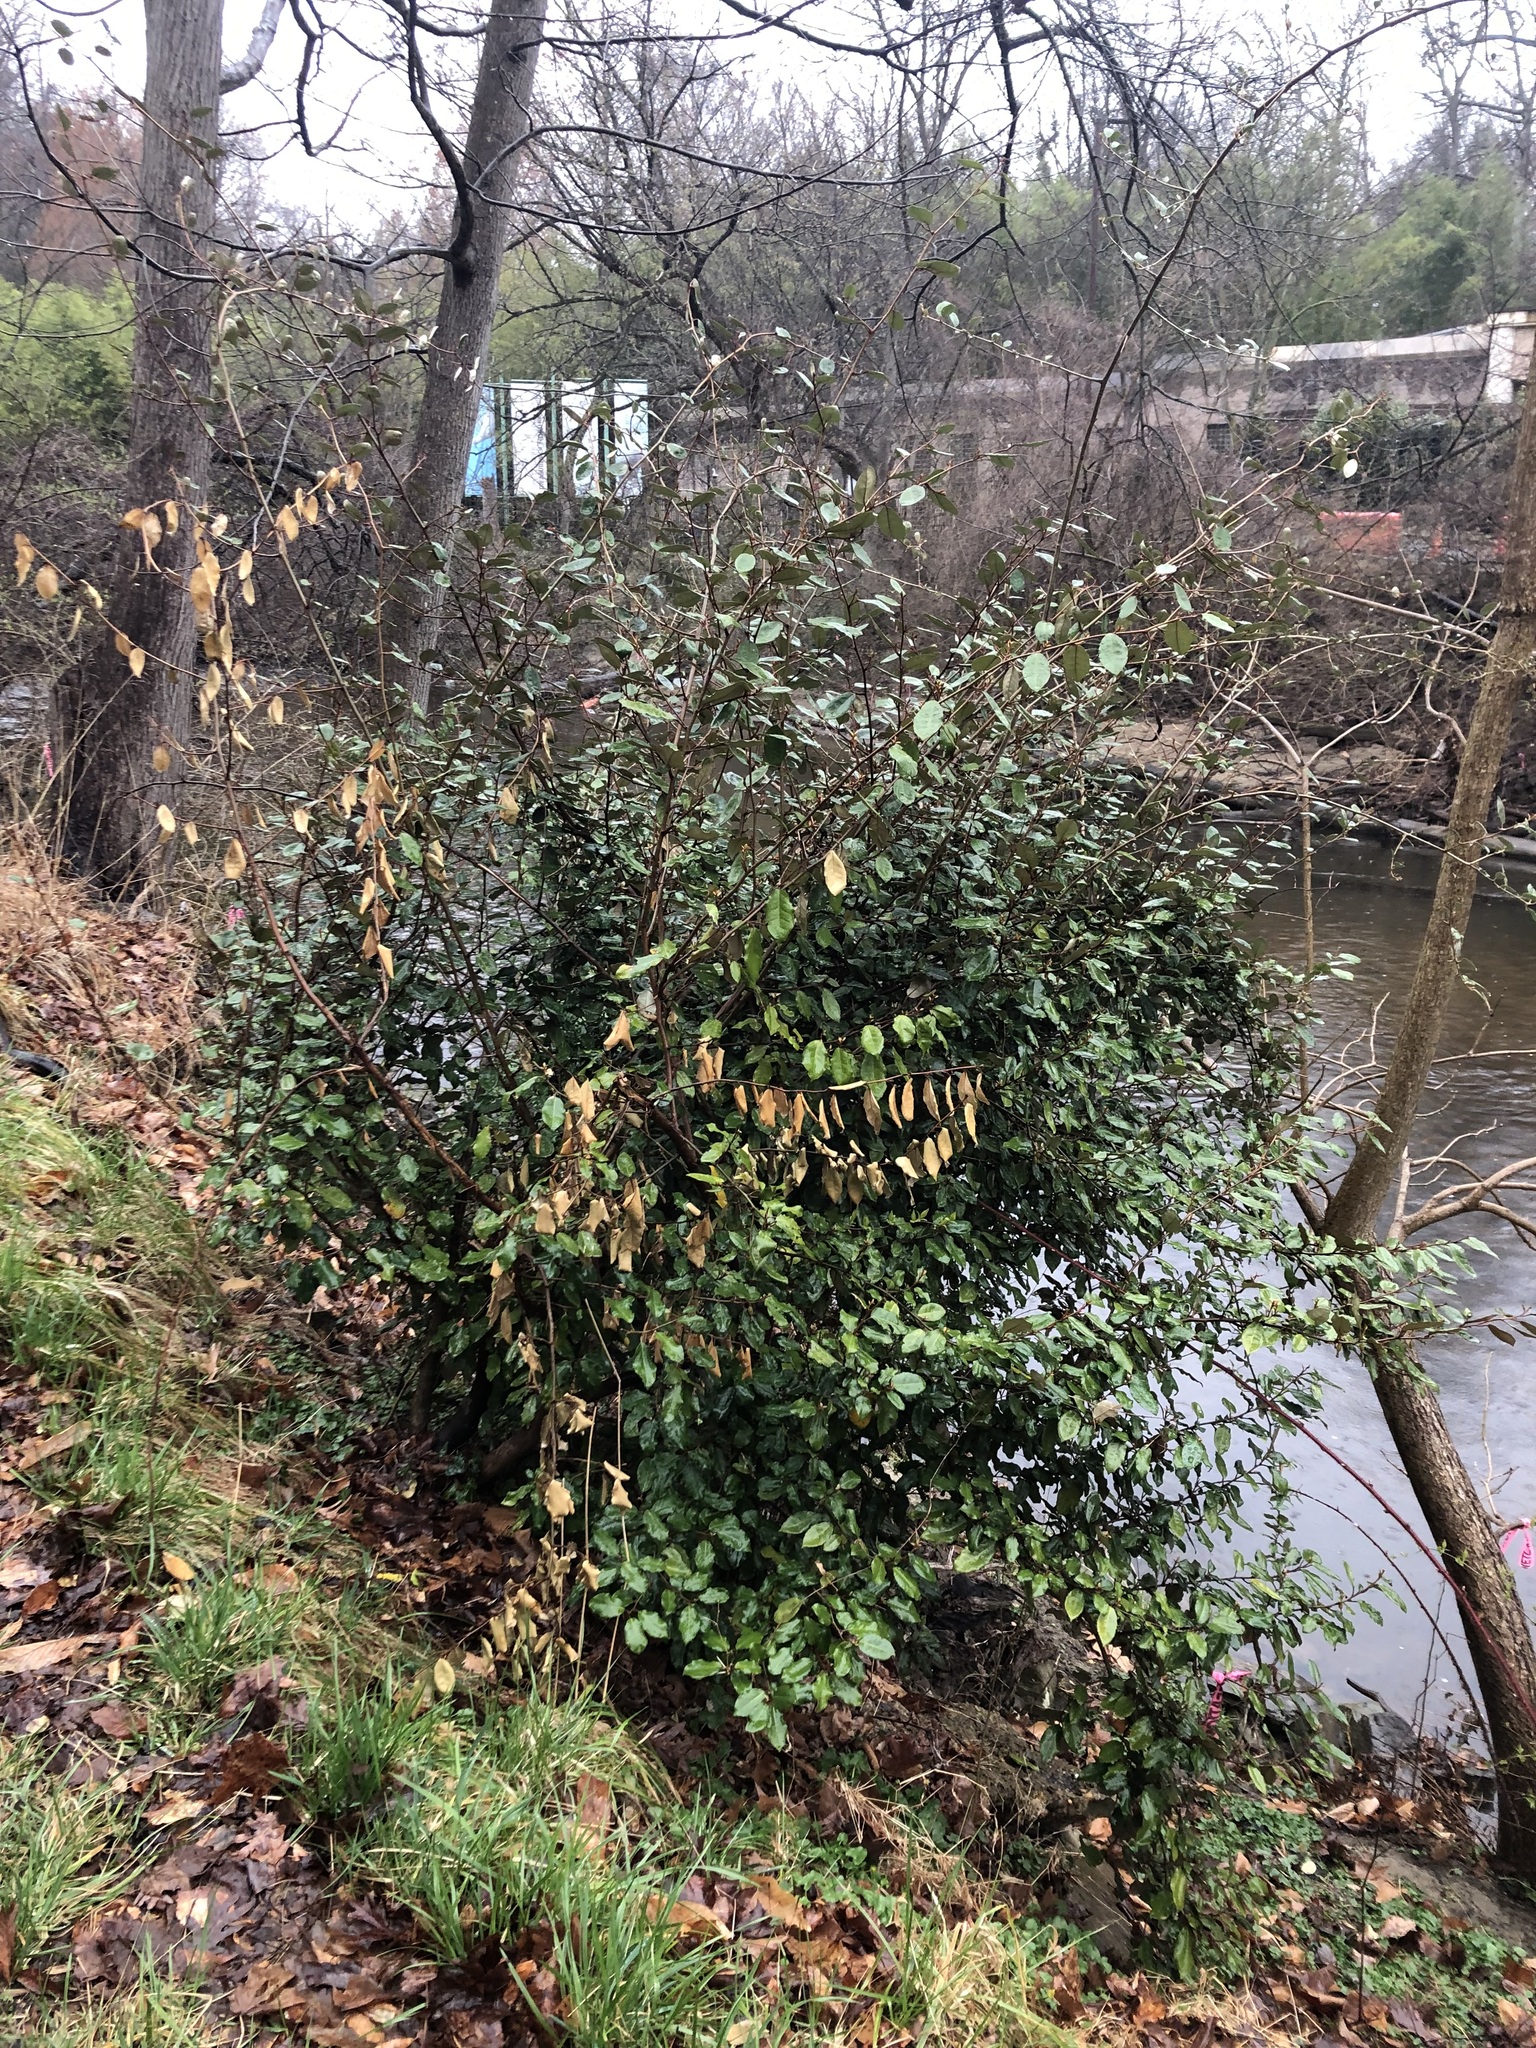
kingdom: Plantae
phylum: Tracheophyta
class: Magnoliopsida
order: Rosales
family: Elaeagnaceae
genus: Elaeagnus
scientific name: Elaeagnus pungens
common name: Spiny oleaster
